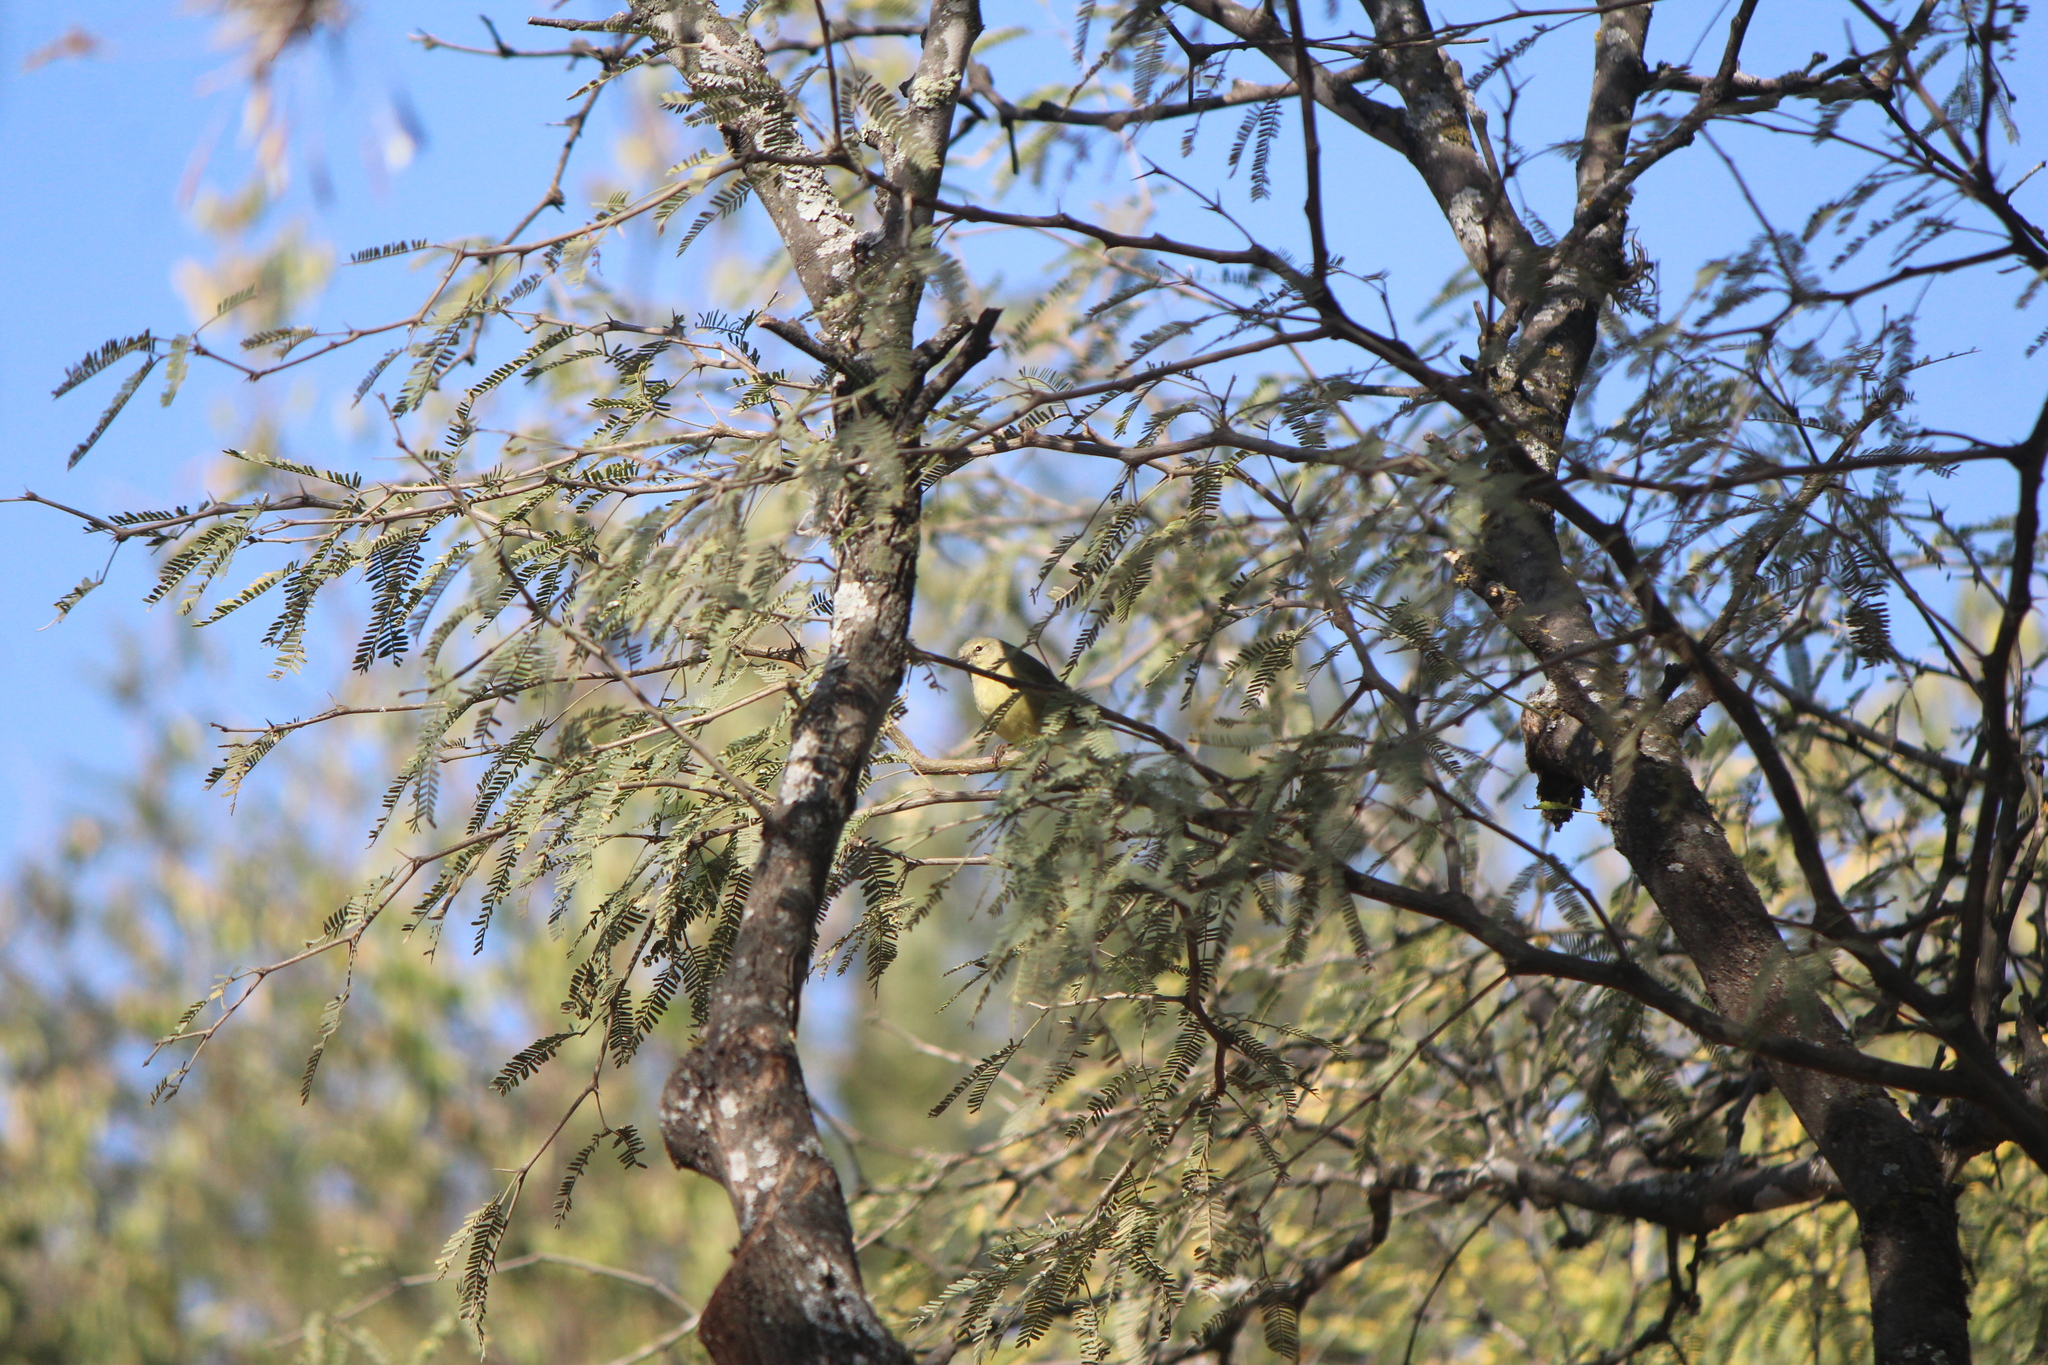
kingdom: Animalia
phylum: Chordata
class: Aves
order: Passeriformes
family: Parulidae
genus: Leiothlypis
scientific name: Leiothlypis celata
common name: Orange-crowned warbler
